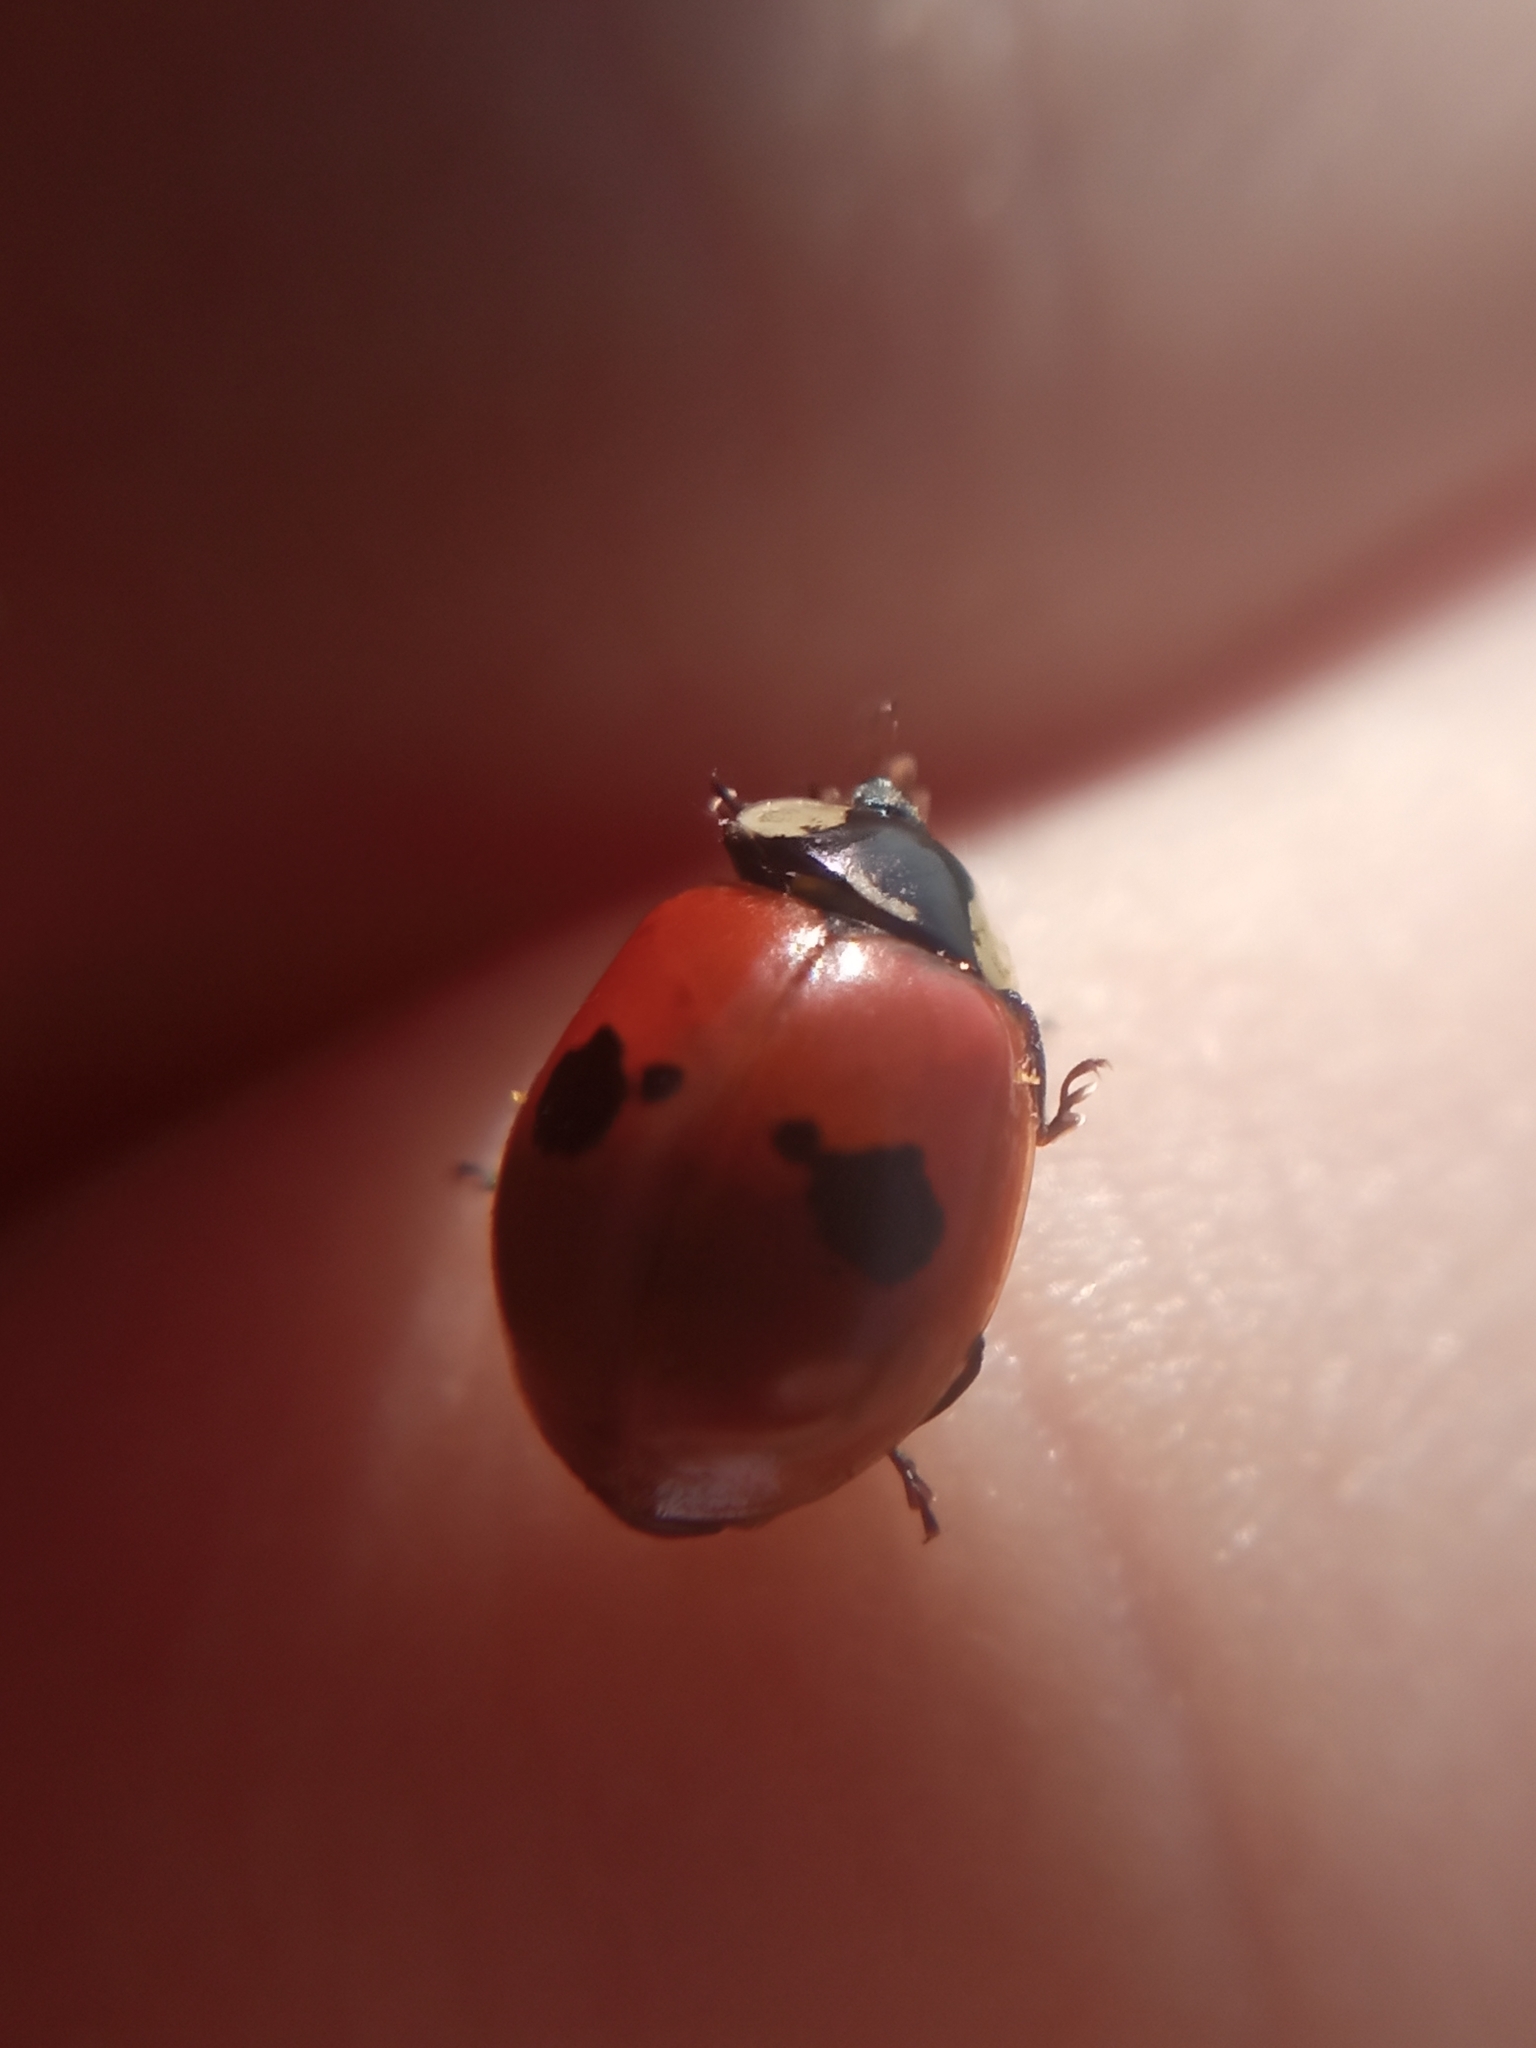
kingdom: Animalia
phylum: Arthropoda
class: Insecta
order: Coleoptera
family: Coccinellidae
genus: Adalia
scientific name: Adalia bipunctata
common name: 2-spot ladybird
